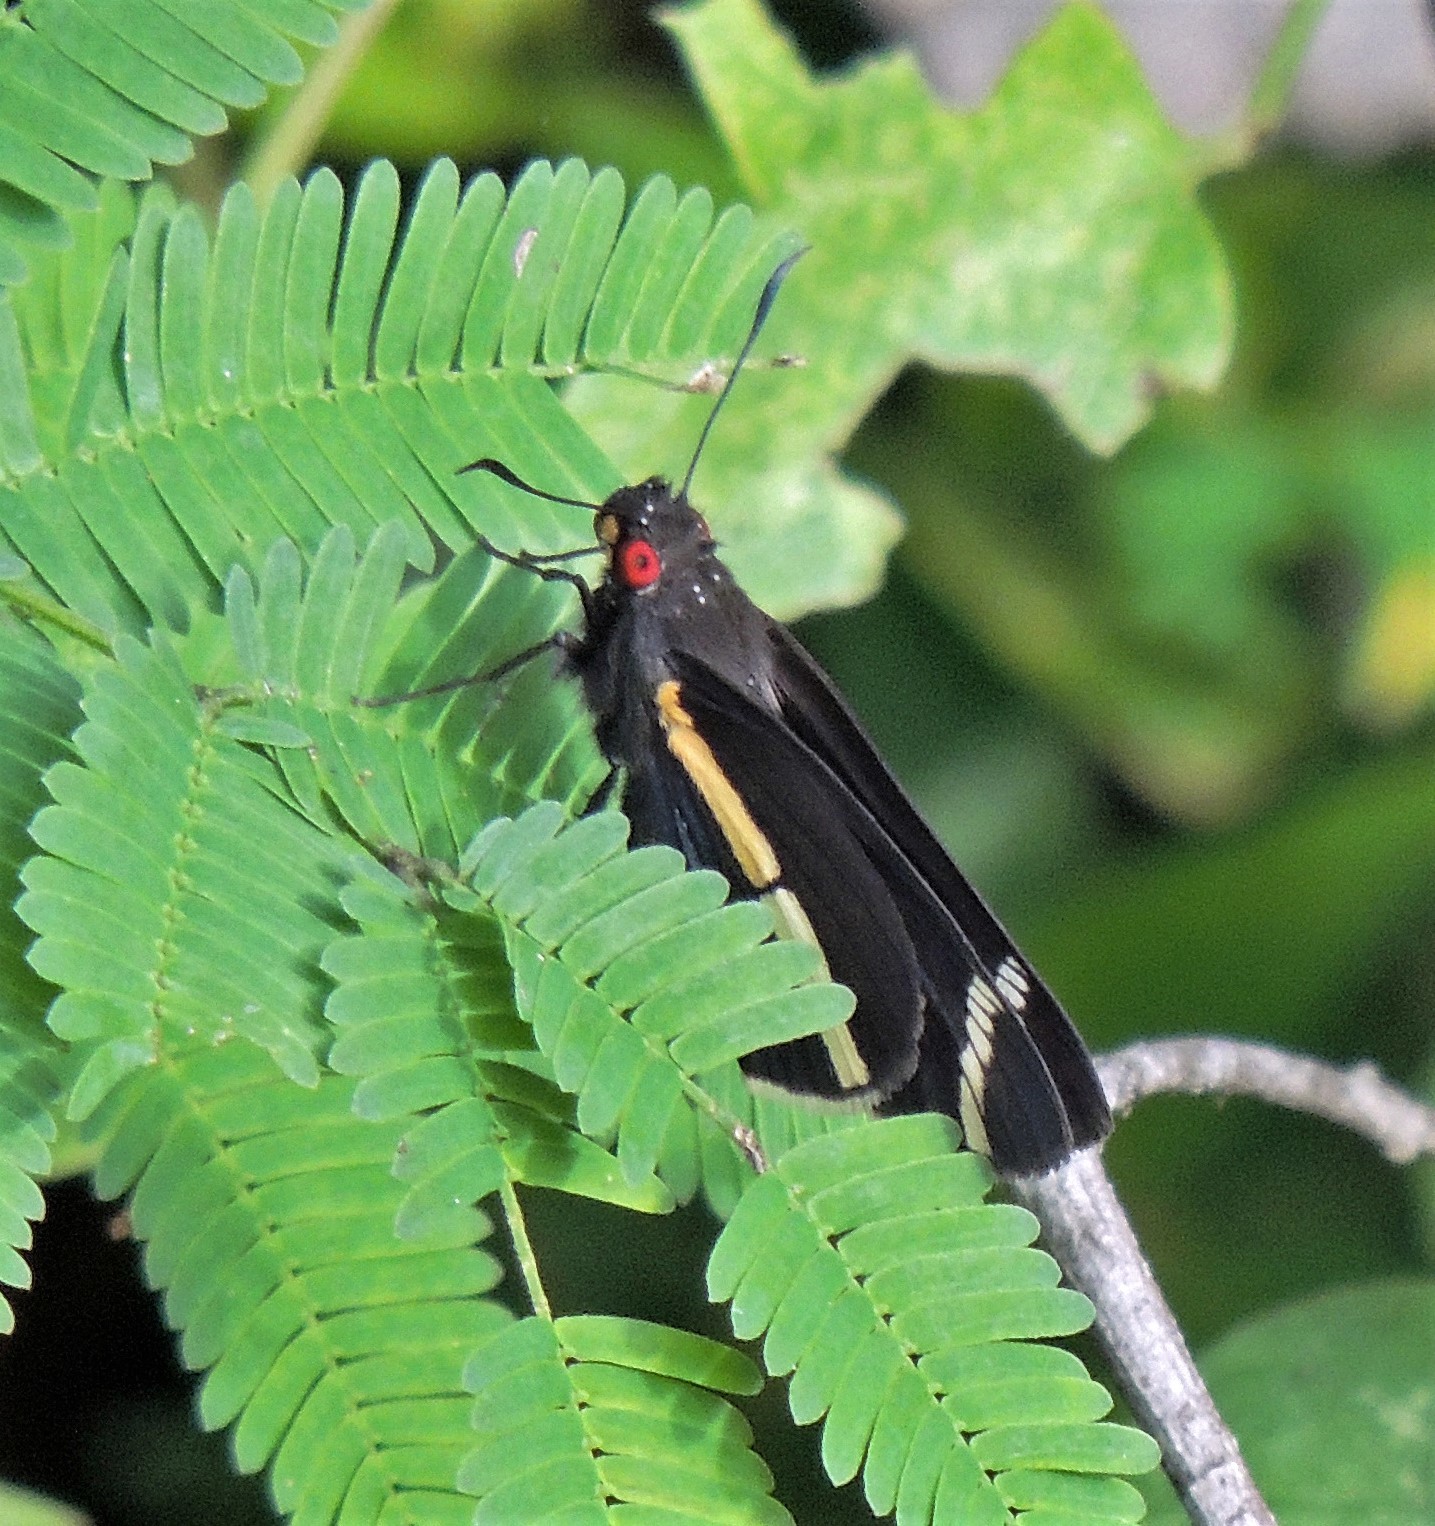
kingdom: Animalia
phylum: Arthropoda
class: Insecta
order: Lepidoptera
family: Hesperiidae
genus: Carystus
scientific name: Carystus
